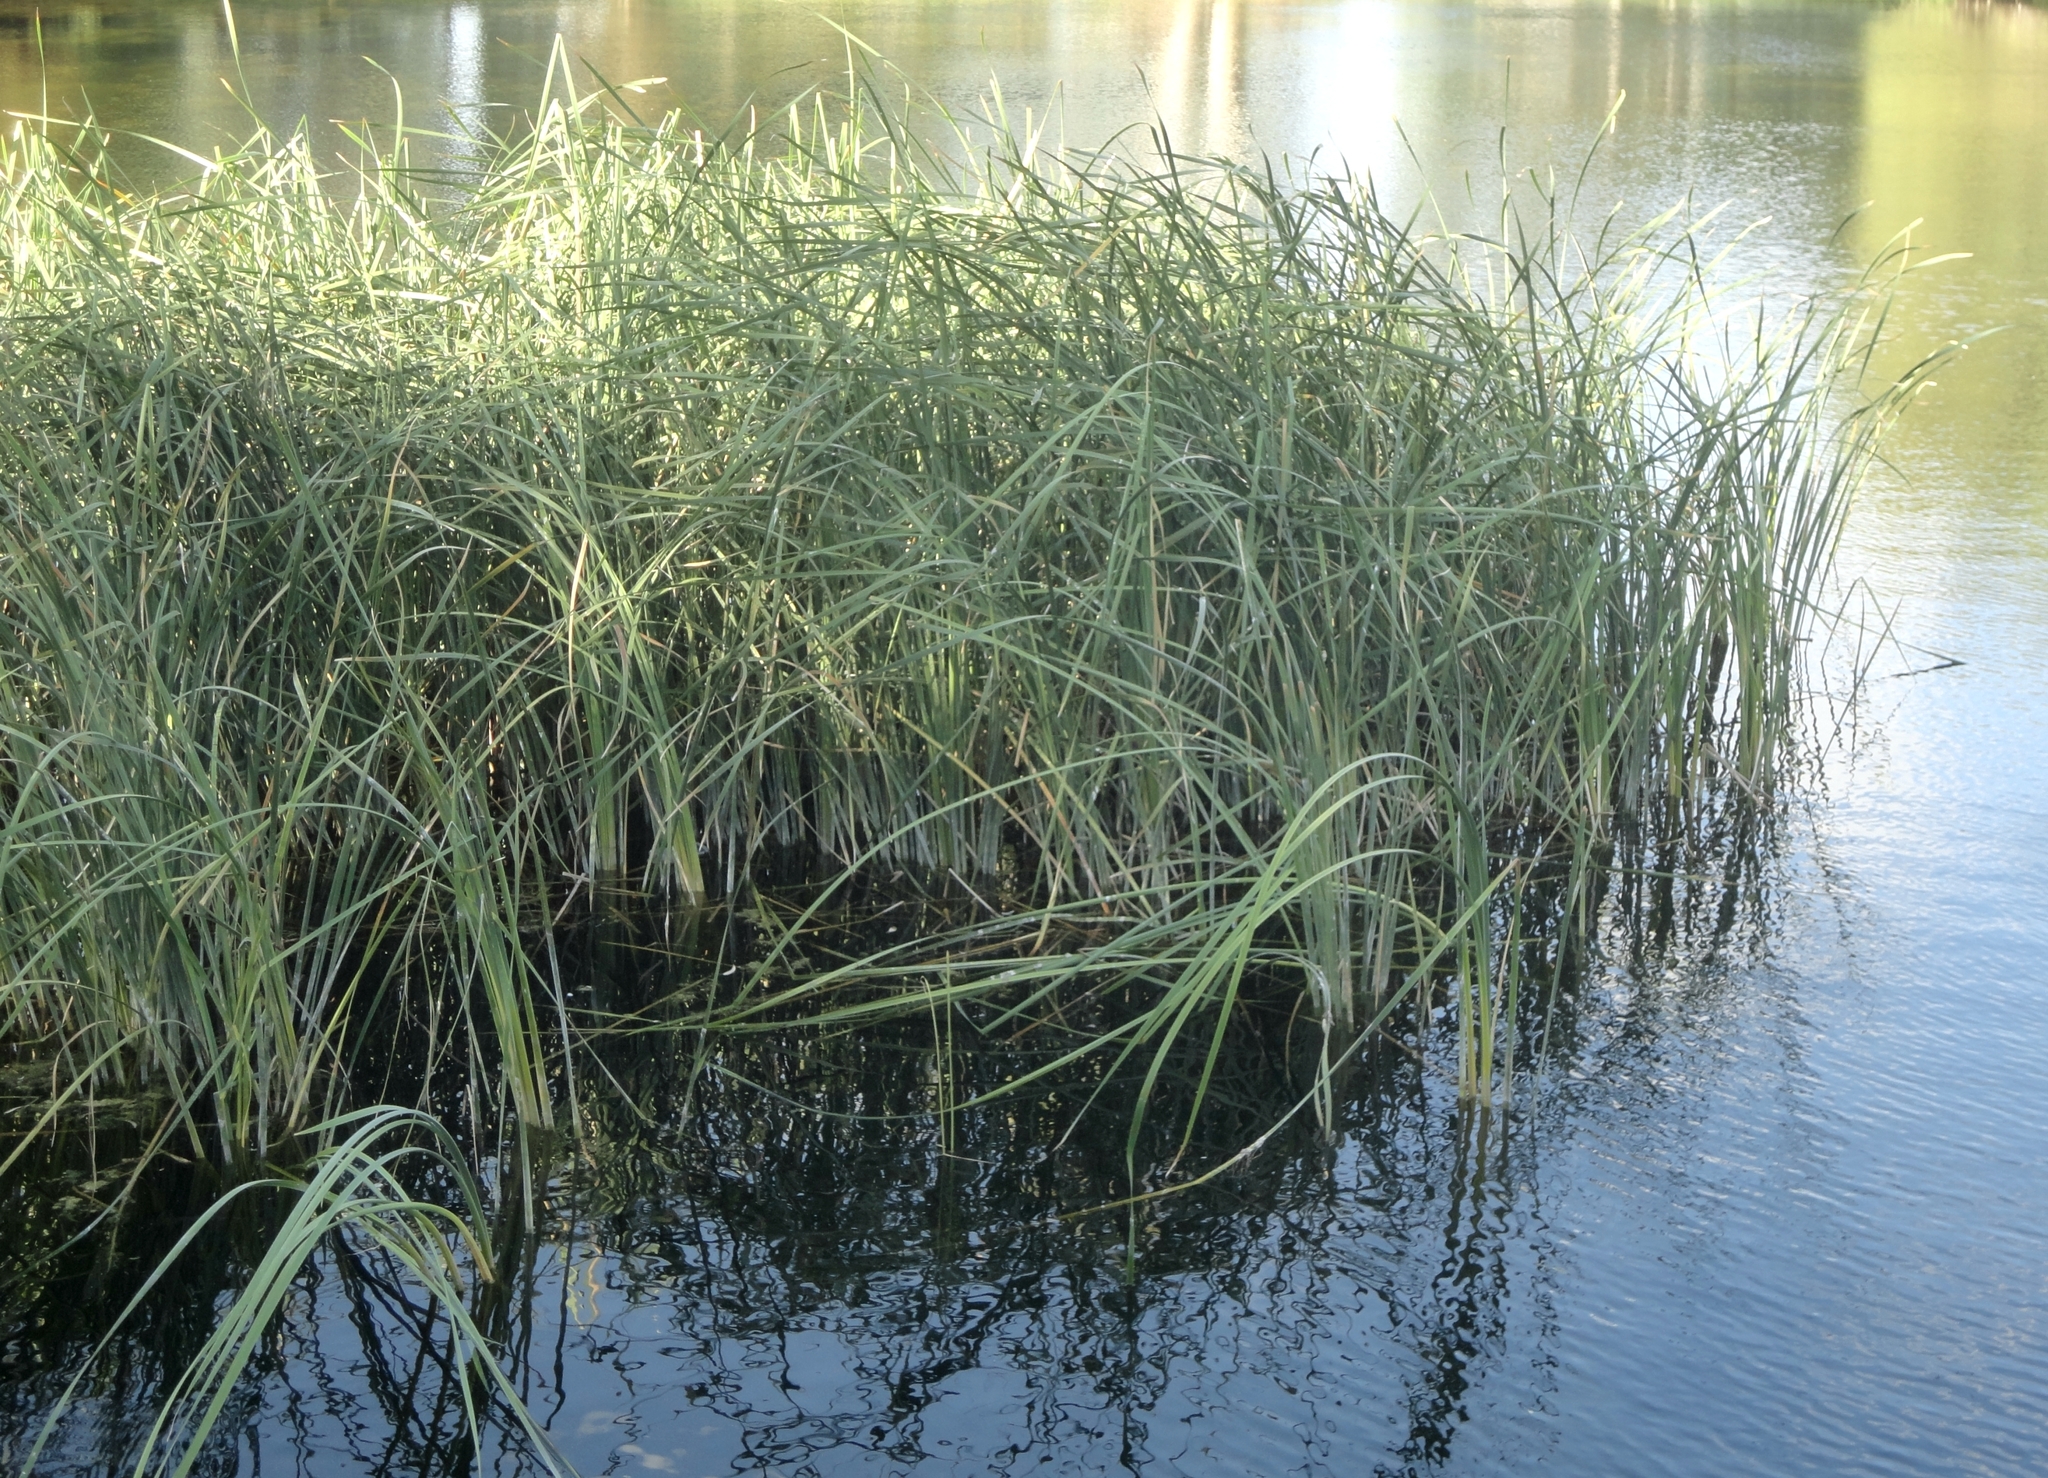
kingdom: Plantae
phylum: Tracheophyta
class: Liliopsida
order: Poales
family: Typhaceae
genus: Typha
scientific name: Typha domingensis
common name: Southern cattail
